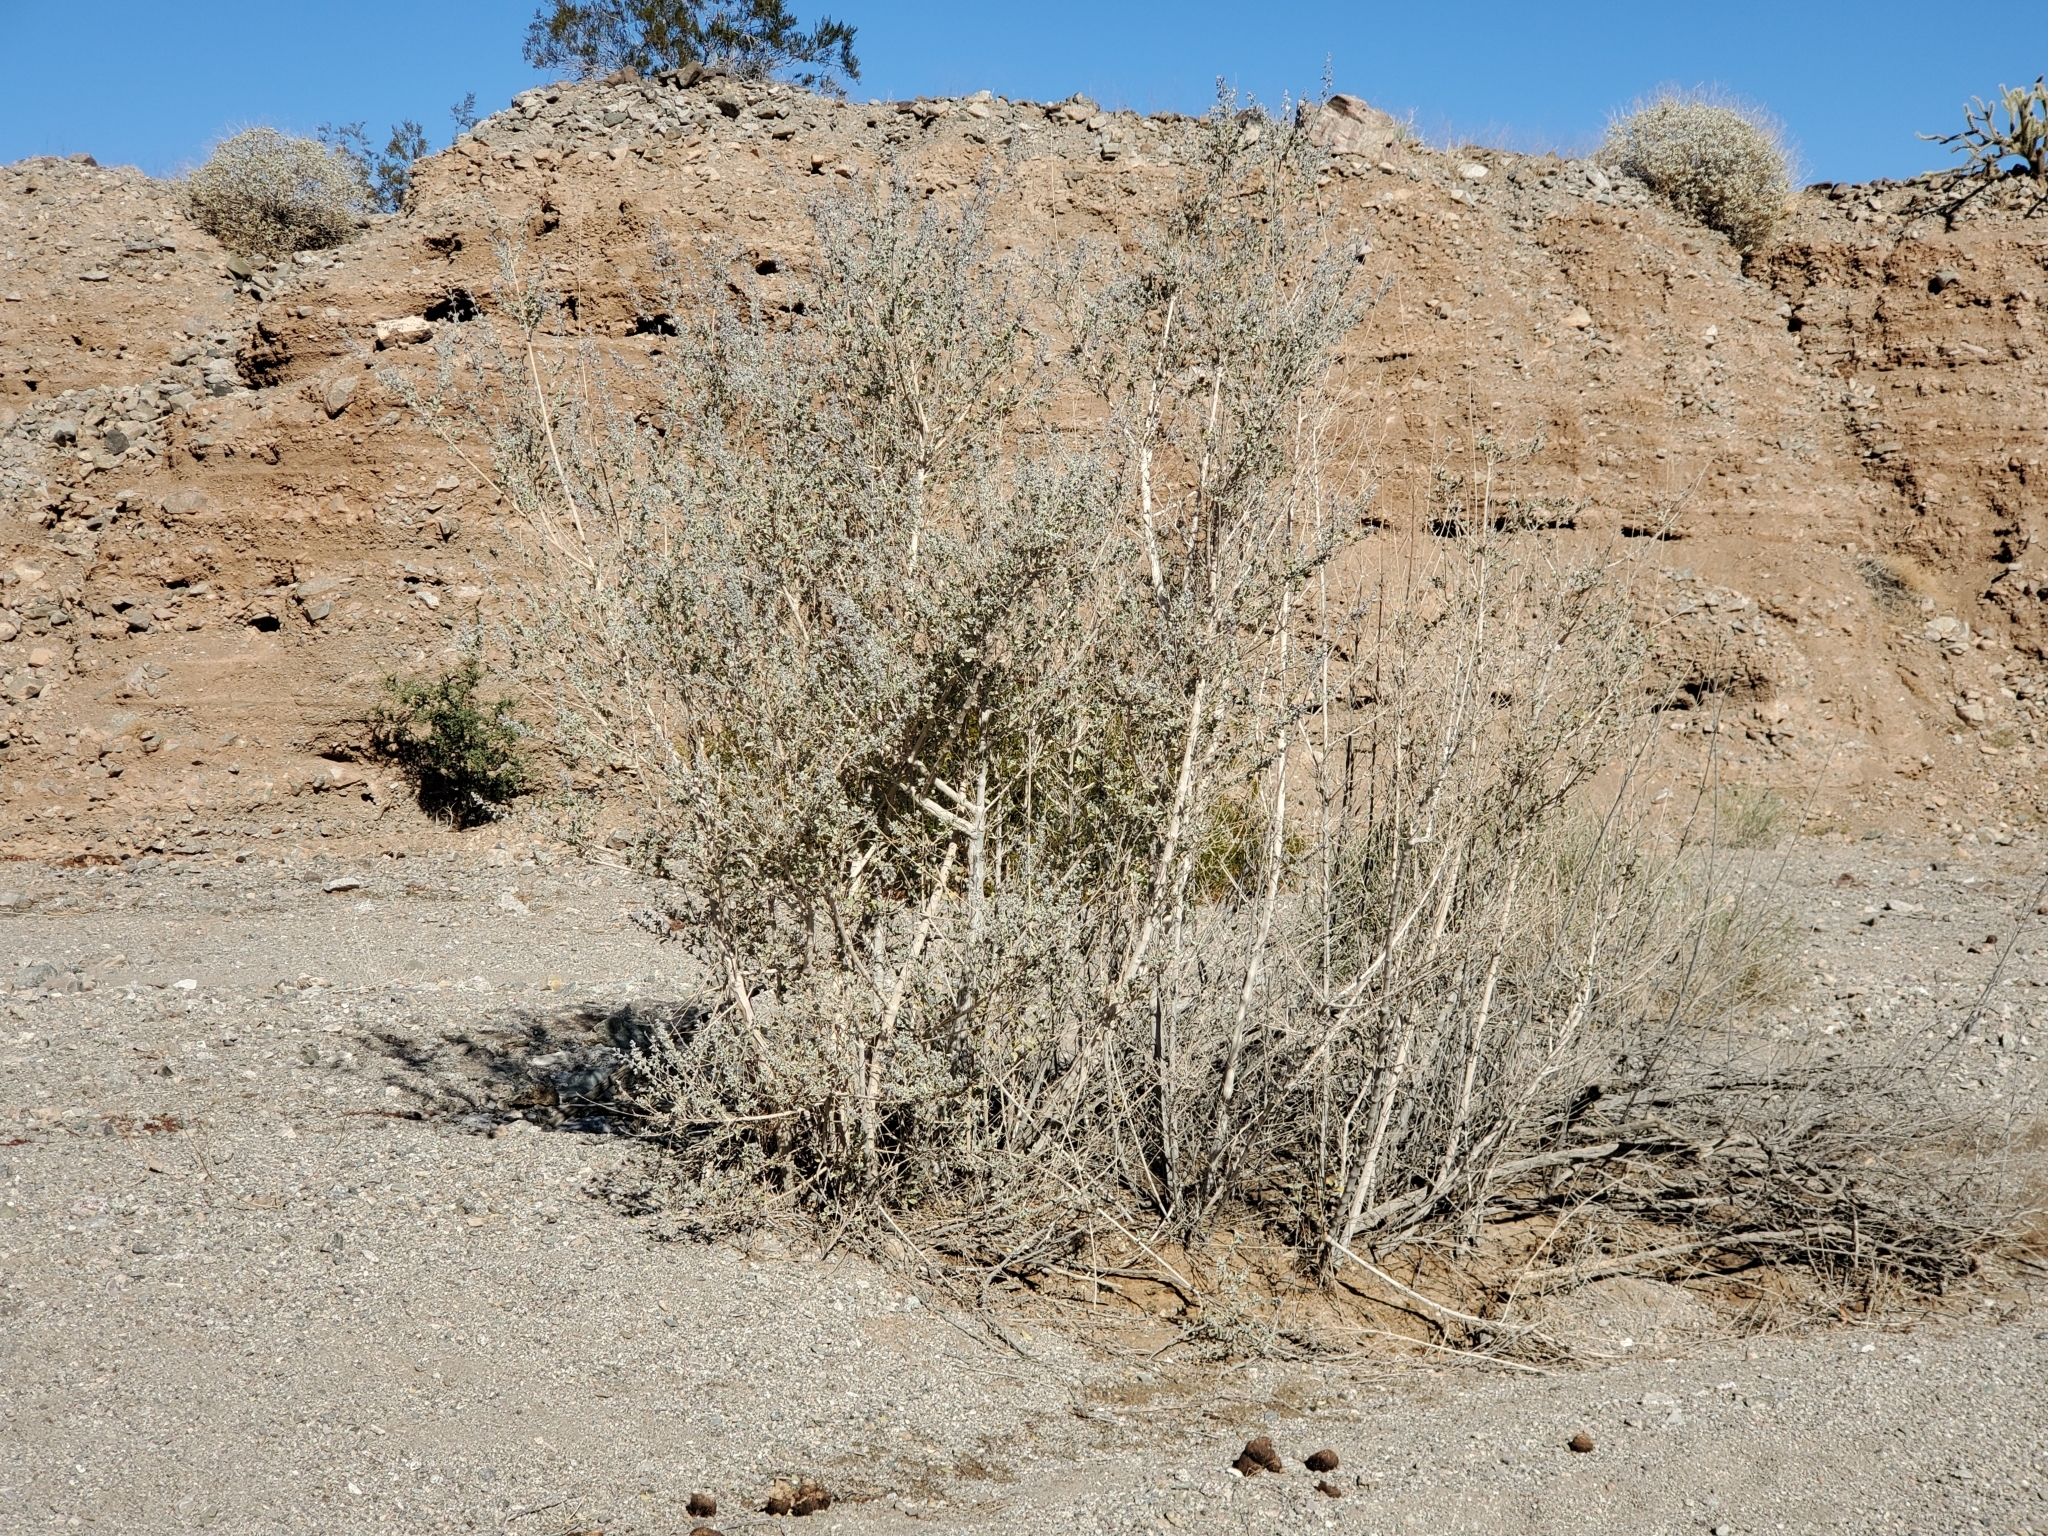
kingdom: Plantae
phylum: Tracheophyta
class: Magnoliopsida
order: Lamiales
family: Lamiaceae
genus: Condea
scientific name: Condea emoryi
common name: Chia
